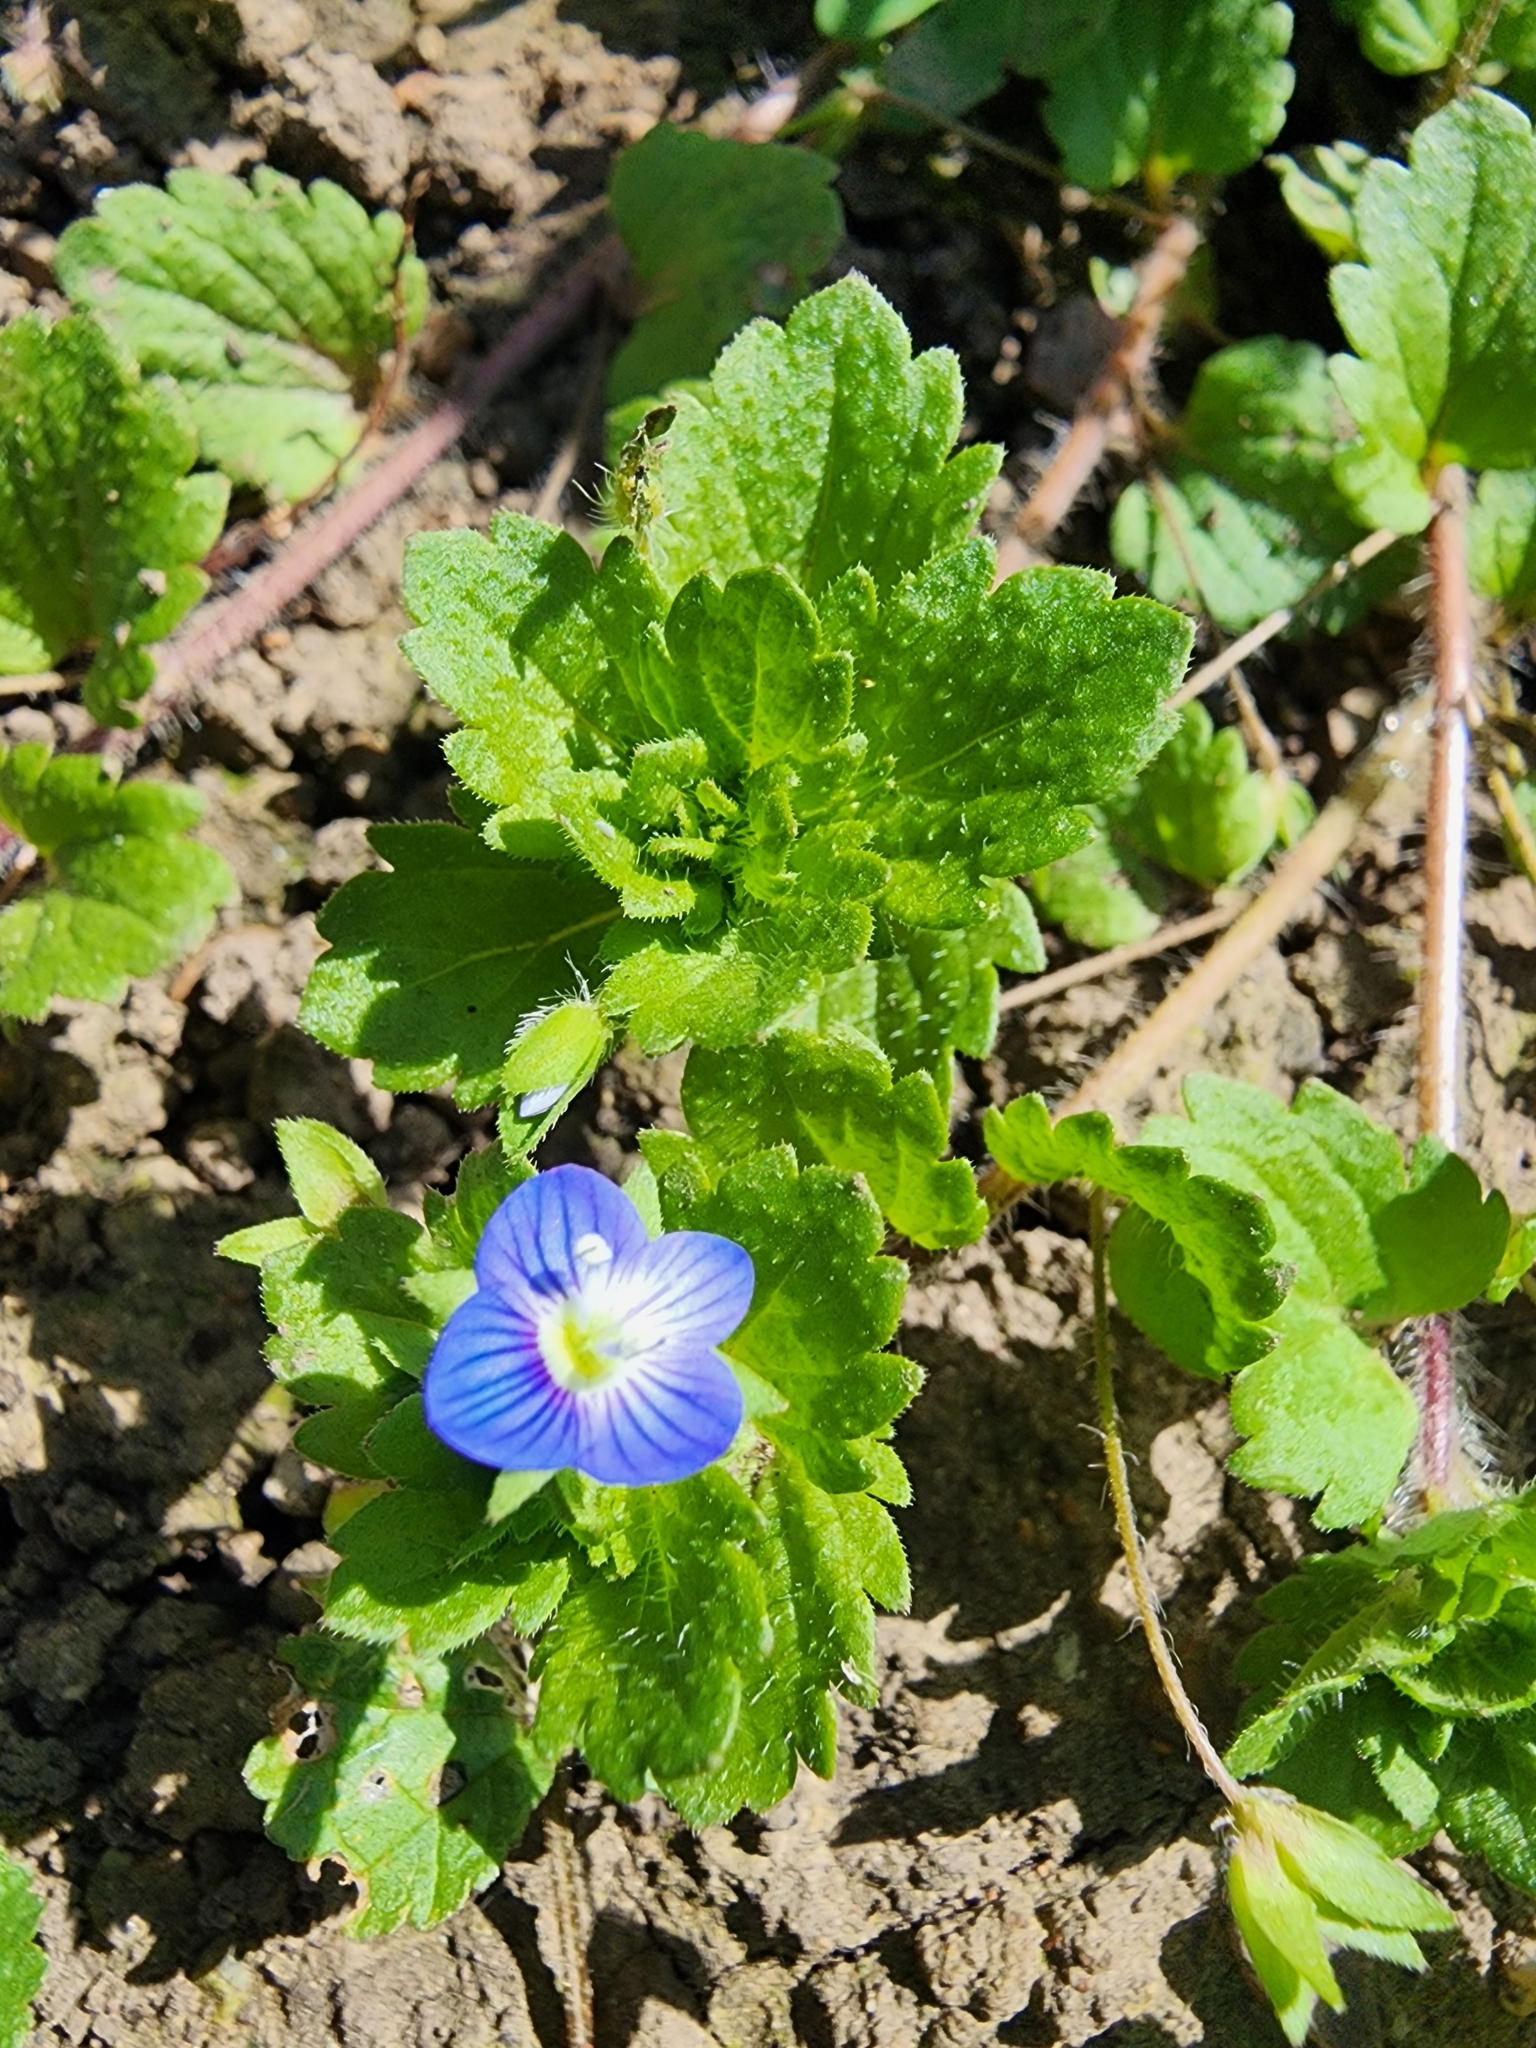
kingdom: Plantae
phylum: Tracheophyta
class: Magnoliopsida
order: Lamiales
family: Plantaginaceae
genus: Veronica
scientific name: Veronica persica
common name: Common field-speedwell
